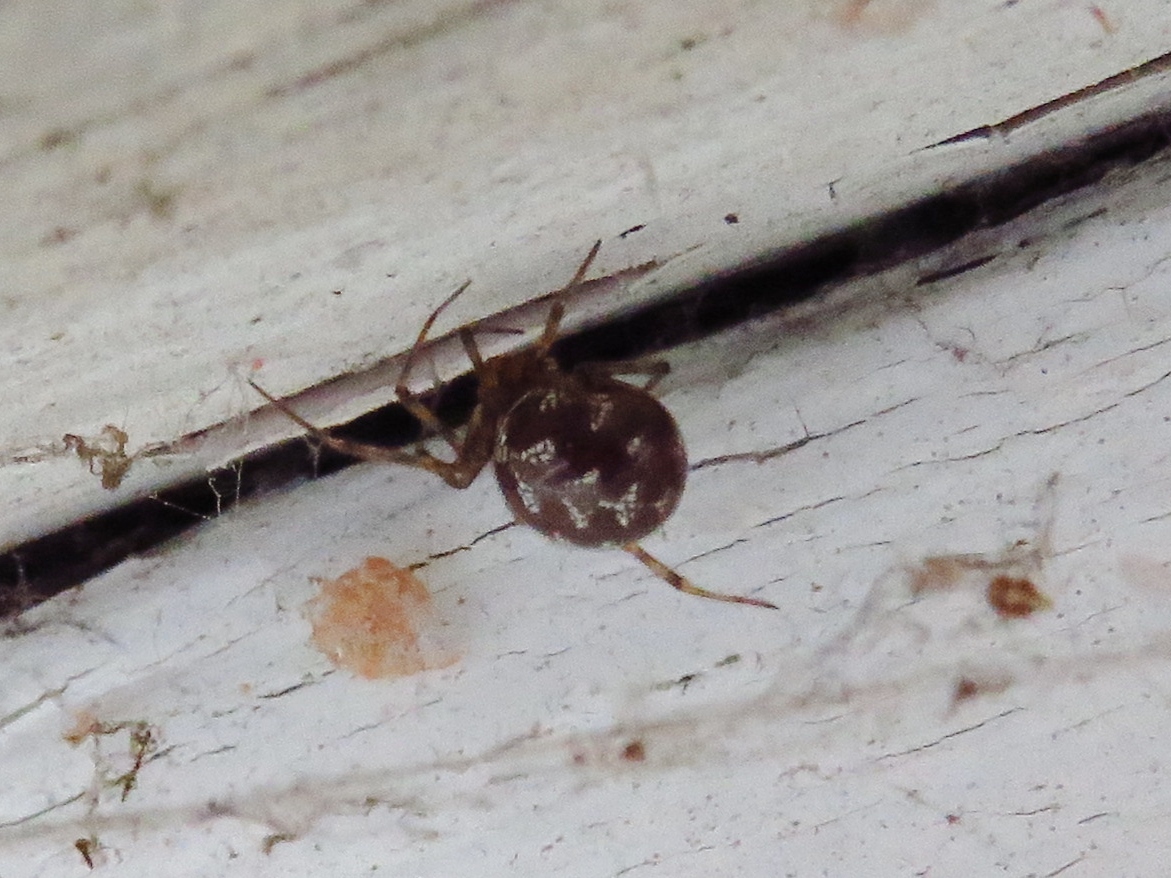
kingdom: Animalia
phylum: Arthropoda
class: Arachnida
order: Araneae
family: Theridiidae
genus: Steatoda
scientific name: Steatoda triangulosa
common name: Triangulate bud spider
